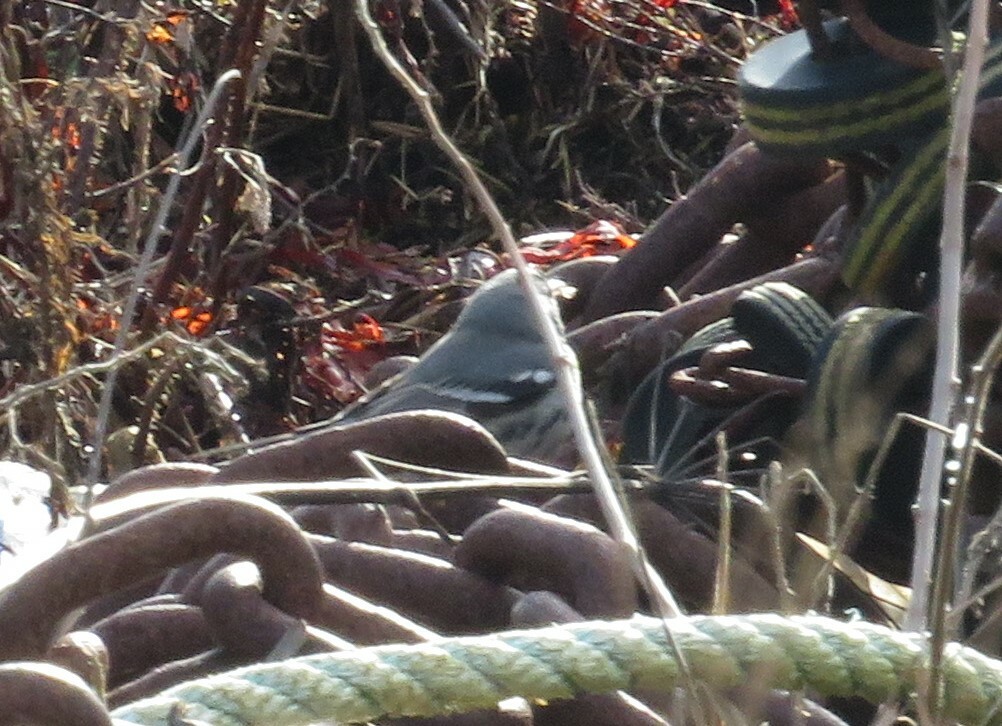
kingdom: Animalia
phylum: Chordata
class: Aves
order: Passeriformes
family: Parulidae
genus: Setophaga
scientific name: Setophaga dominica
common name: Yellow-throated warbler
